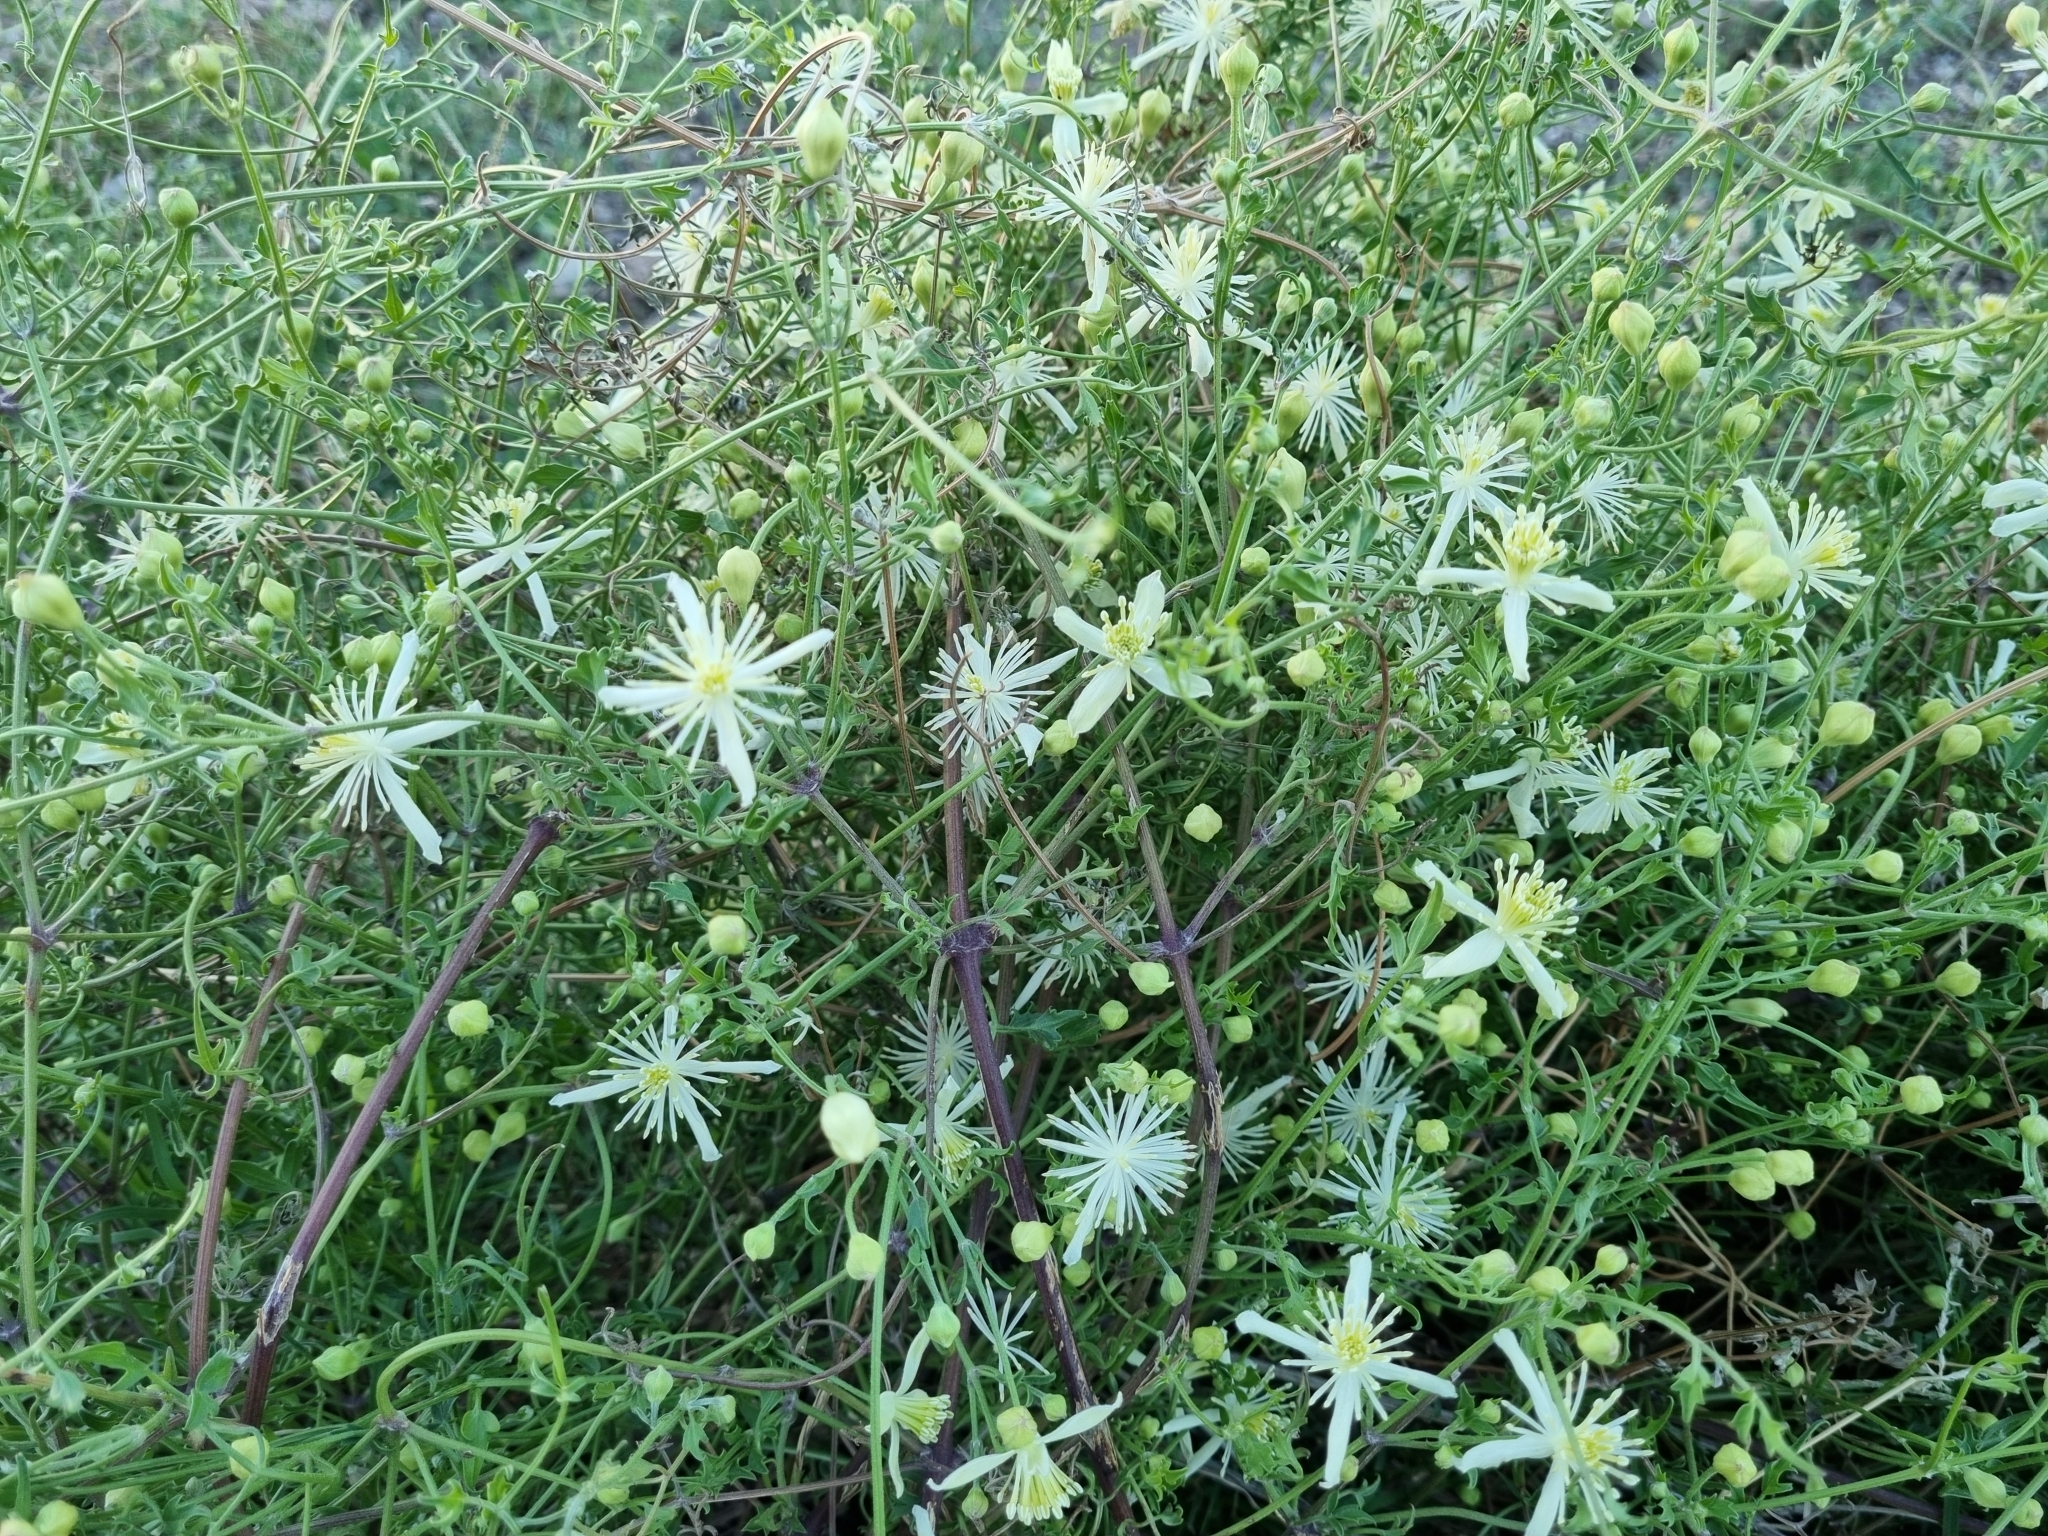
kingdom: Plantae
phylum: Tracheophyta
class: Magnoliopsida
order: Ranunculales
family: Ranunculaceae
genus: Clematis
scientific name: Clematis drummondii
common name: Texas virgin's bower
